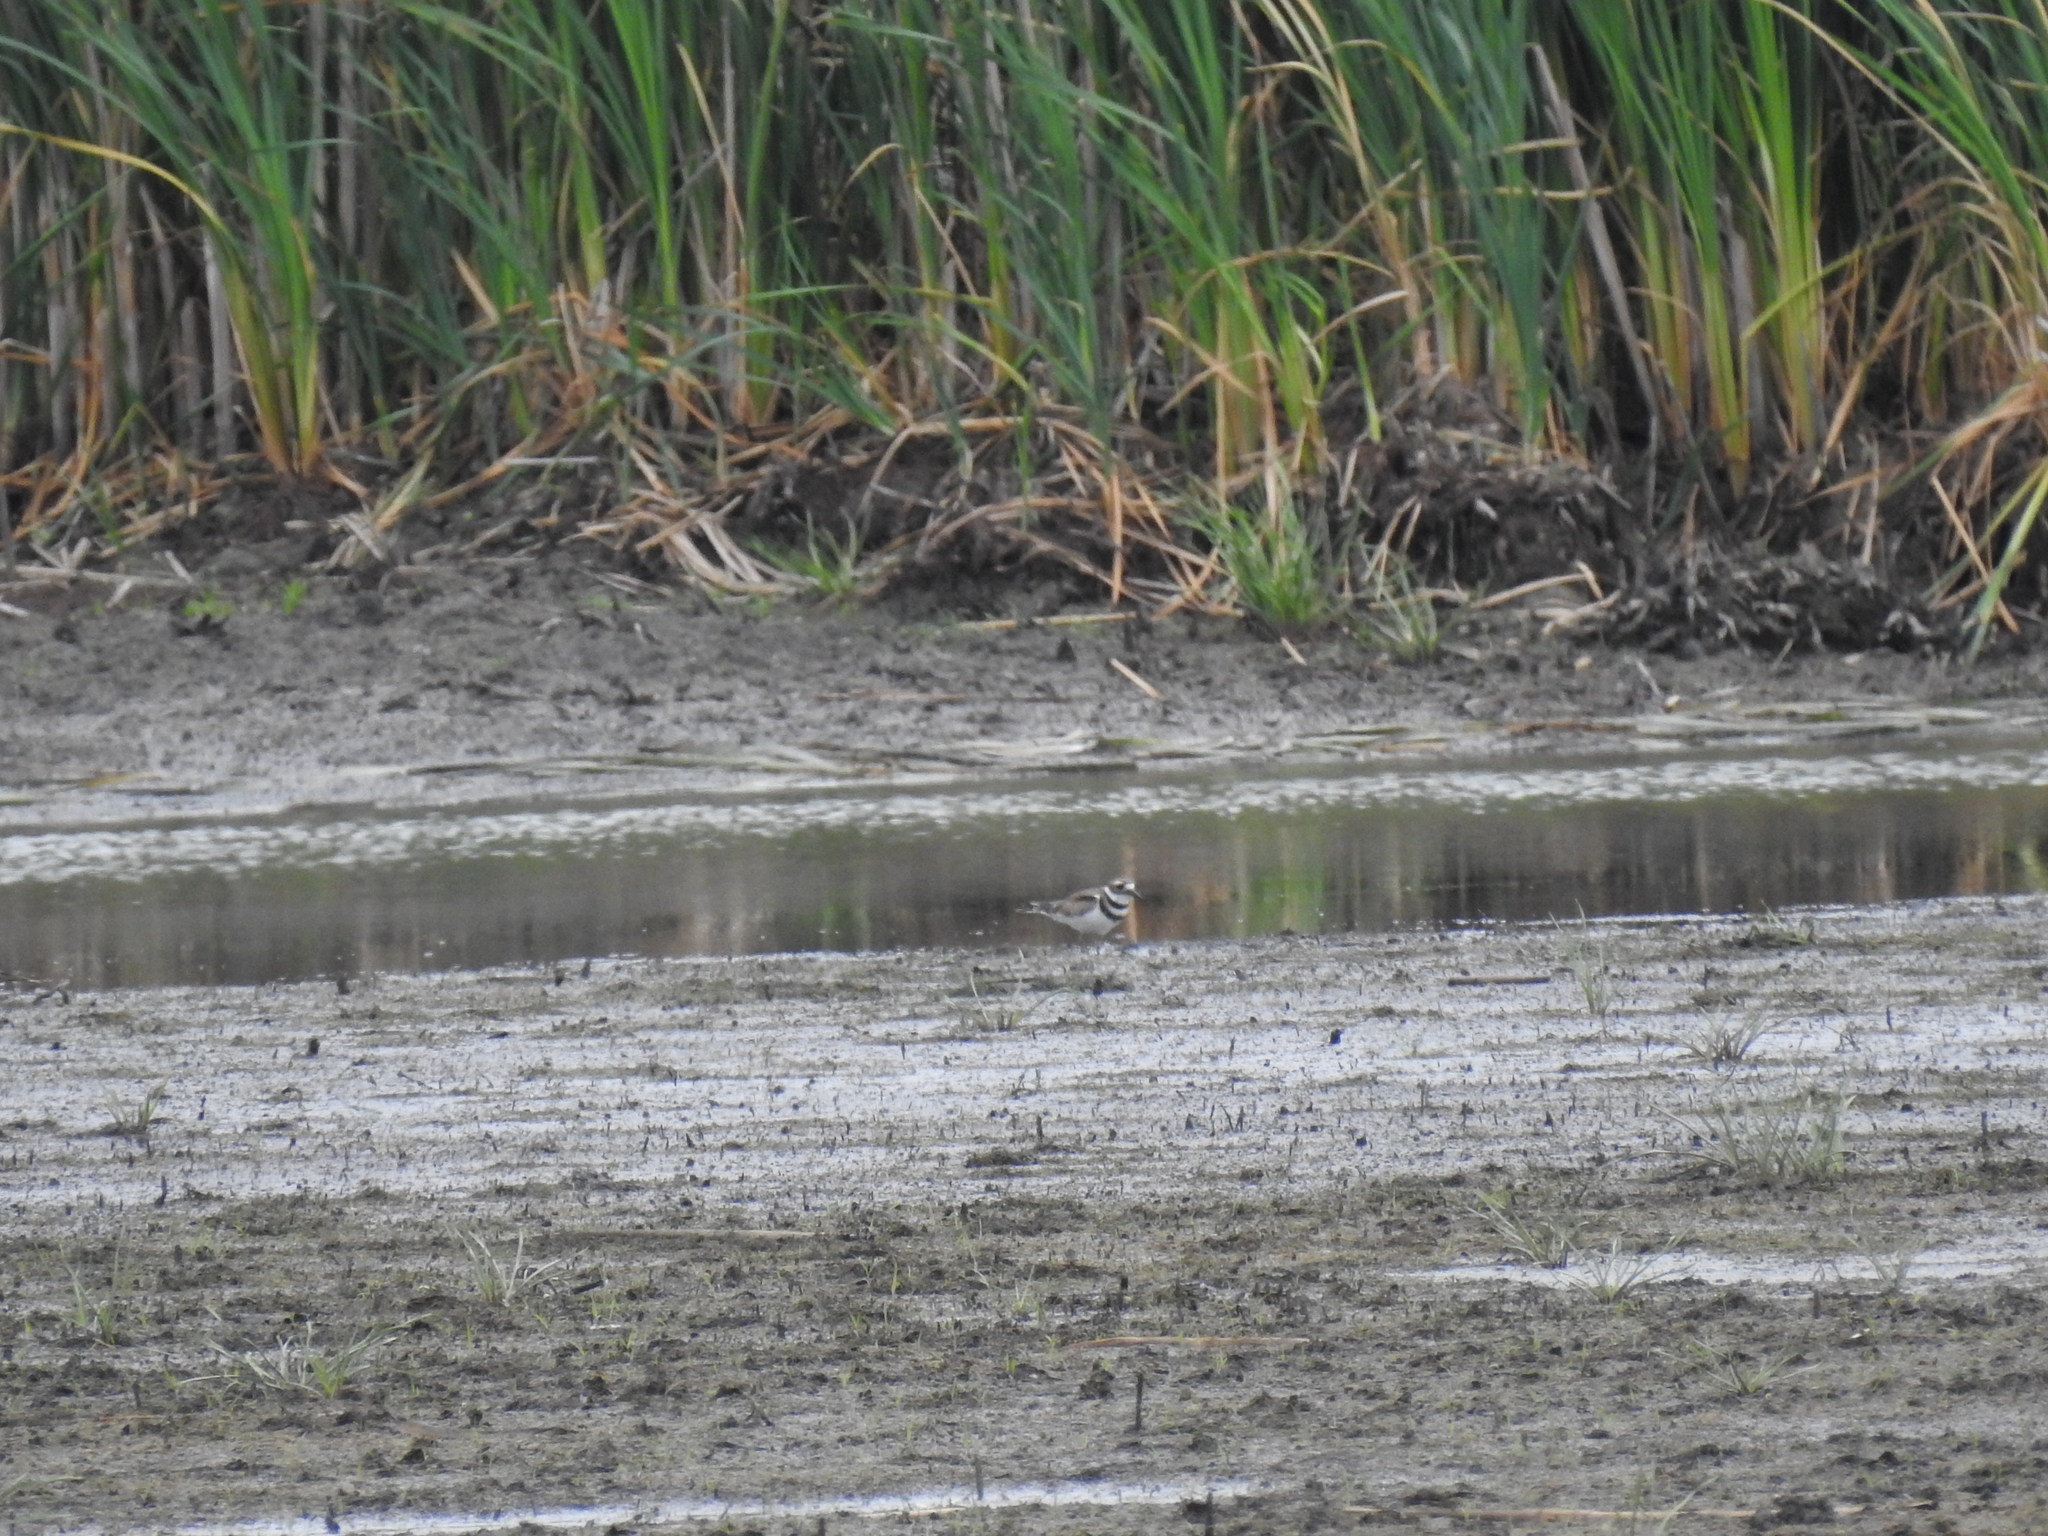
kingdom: Animalia
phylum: Chordata
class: Aves
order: Charadriiformes
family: Charadriidae
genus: Charadrius
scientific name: Charadrius vociferus
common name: Killdeer
